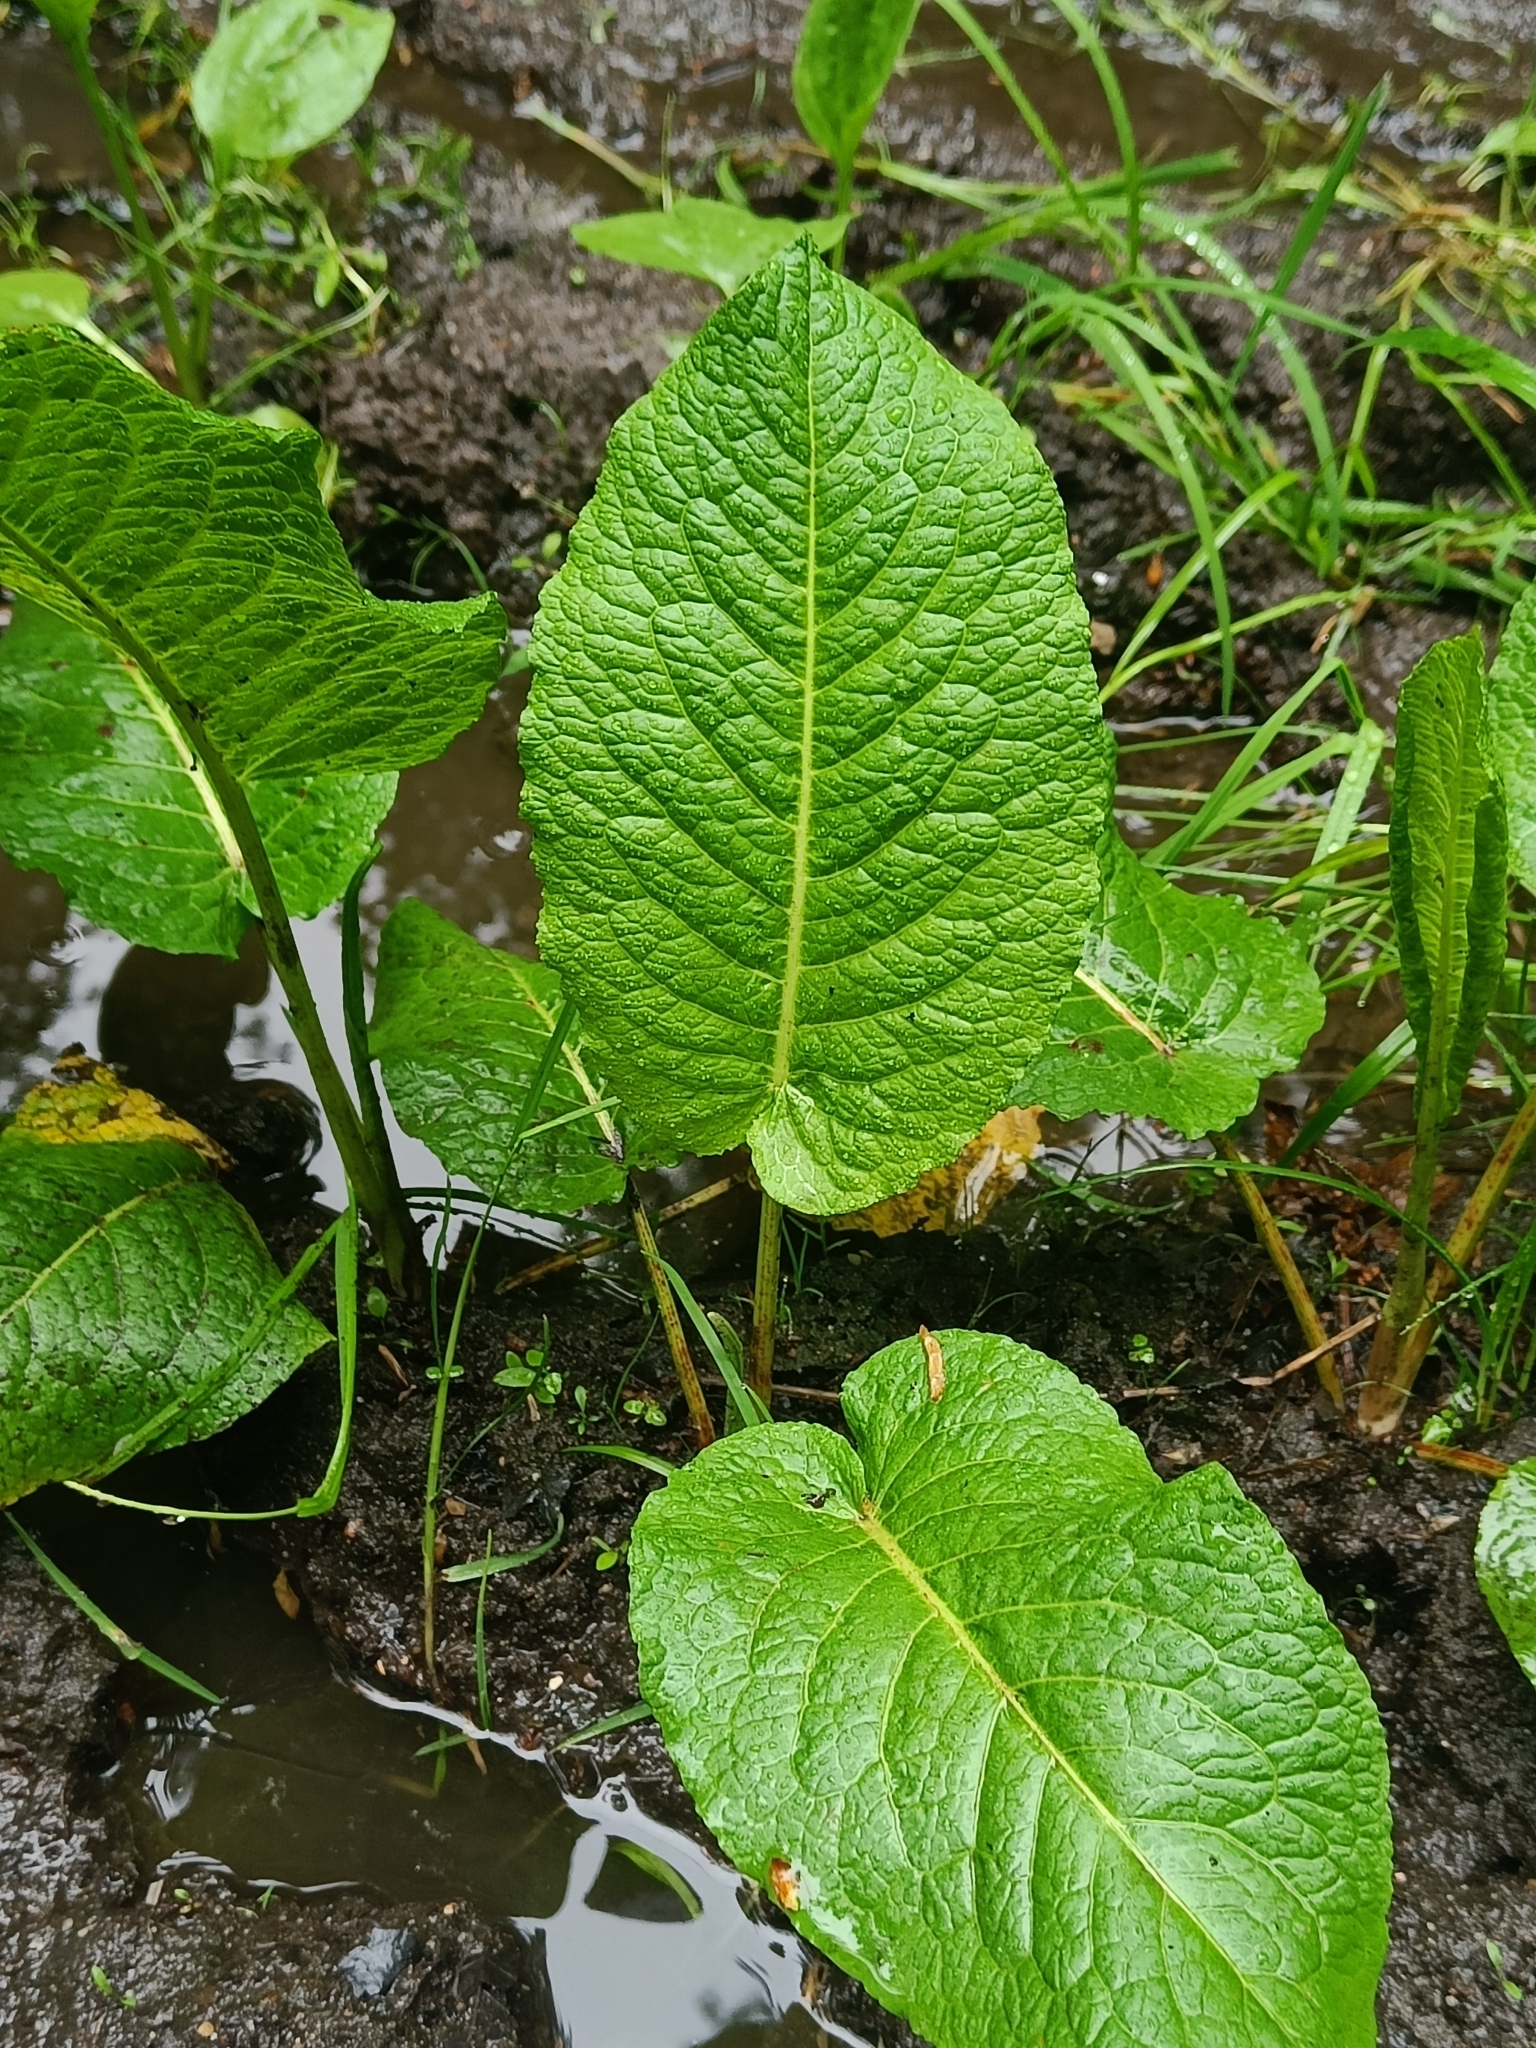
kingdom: Plantae
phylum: Tracheophyta
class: Magnoliopsida
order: Caryophyllales
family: Polygonaceae
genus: Rumex
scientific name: Rumex obtusifolius
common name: Bitter dock
